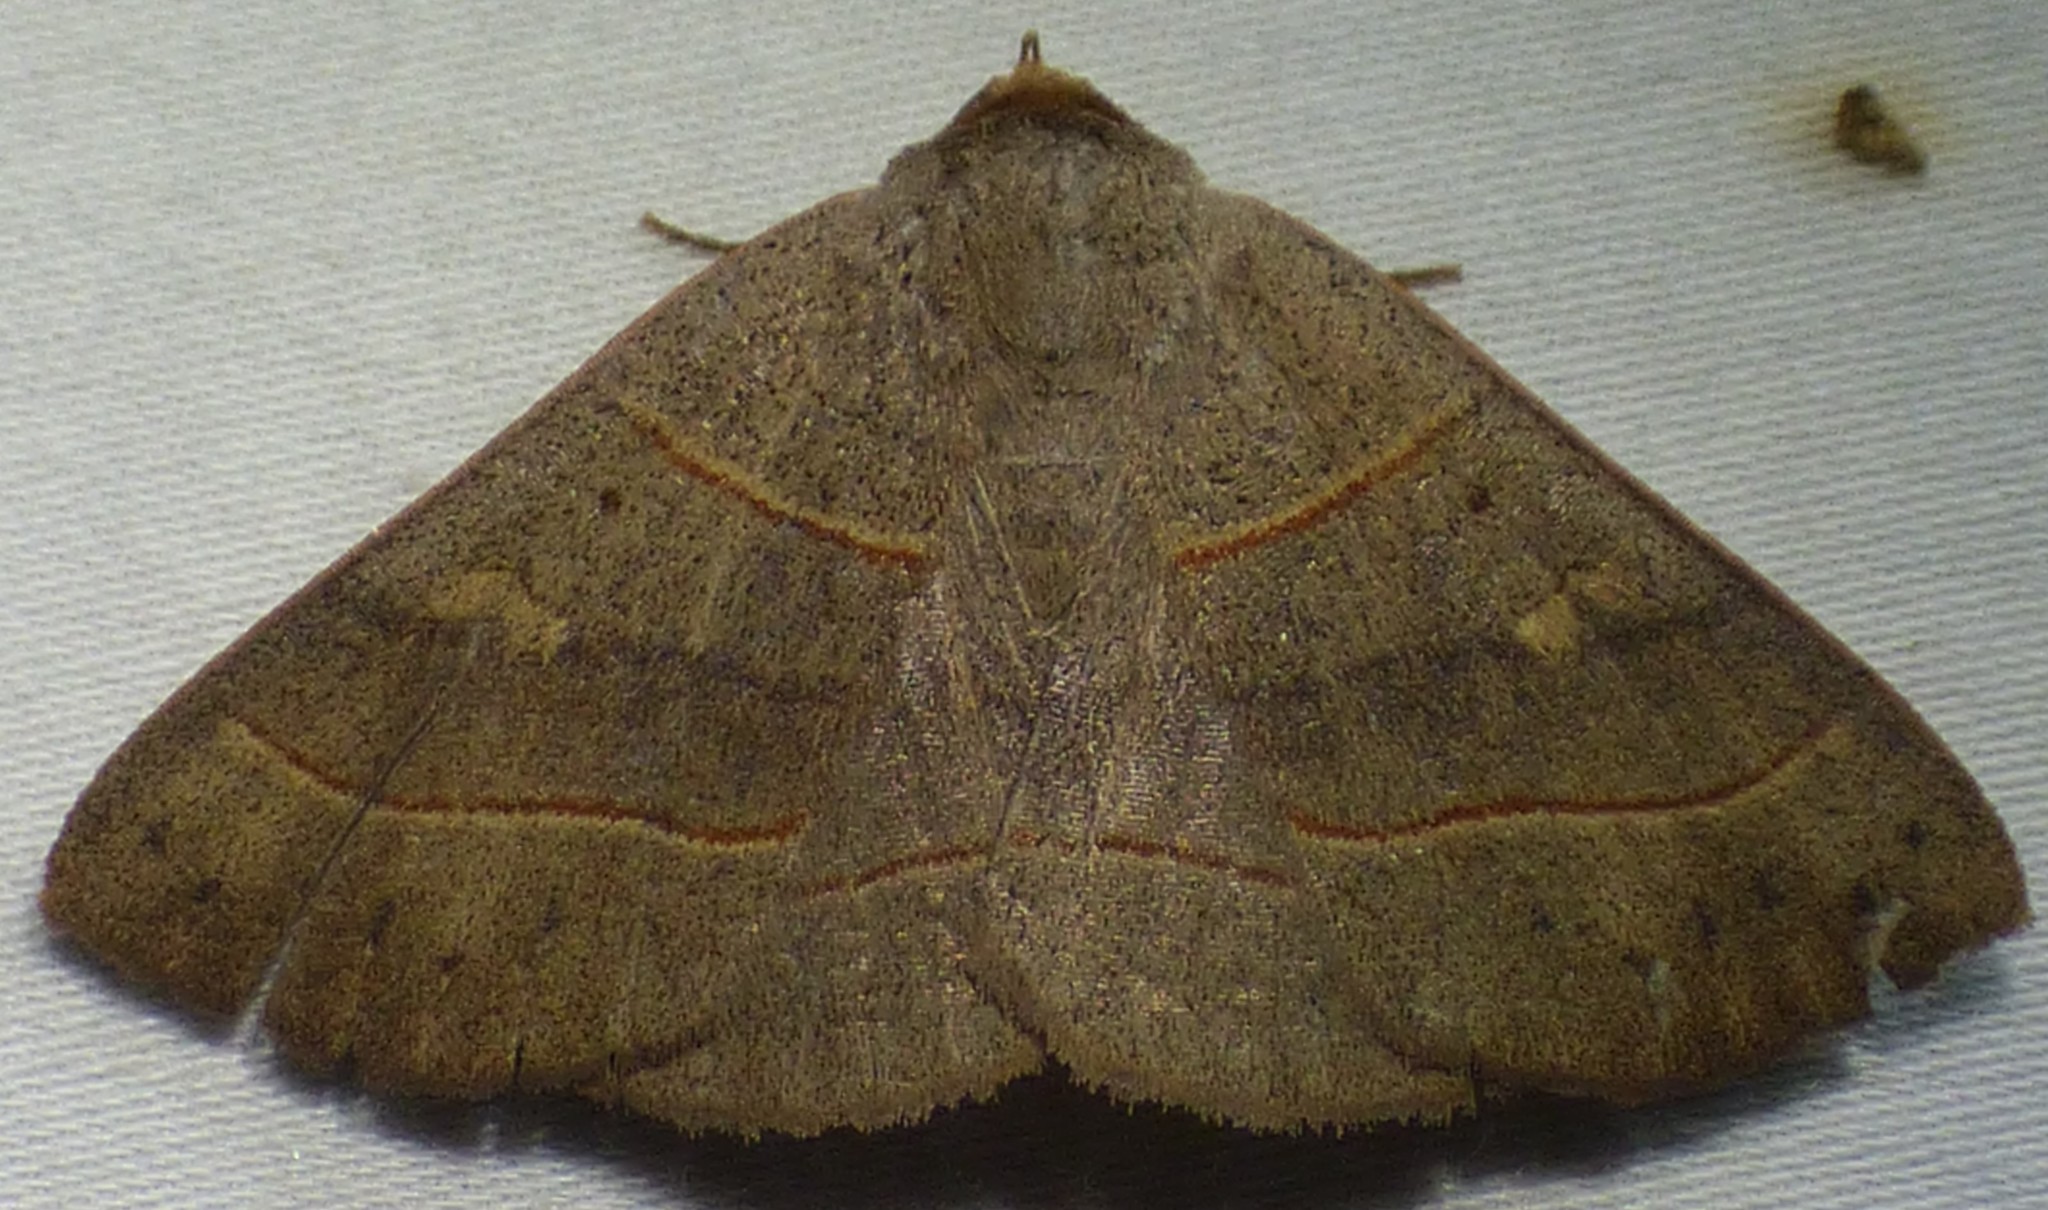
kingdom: Animalia
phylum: Arthropoda
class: Insecta
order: Lepidoptera
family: Erebidae
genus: Panopoda
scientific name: Panopoda rufimargo
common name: Red-lined panopoda moth
